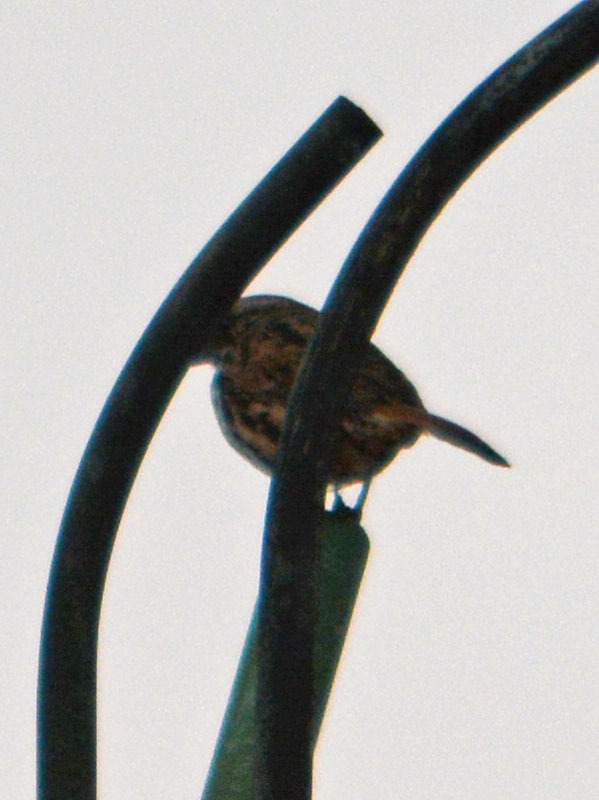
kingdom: Animalia
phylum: Chordata
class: Aves
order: Passeriformes
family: Passerellidae
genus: Melospiza
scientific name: Melospiza melodia
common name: Song sparrow
